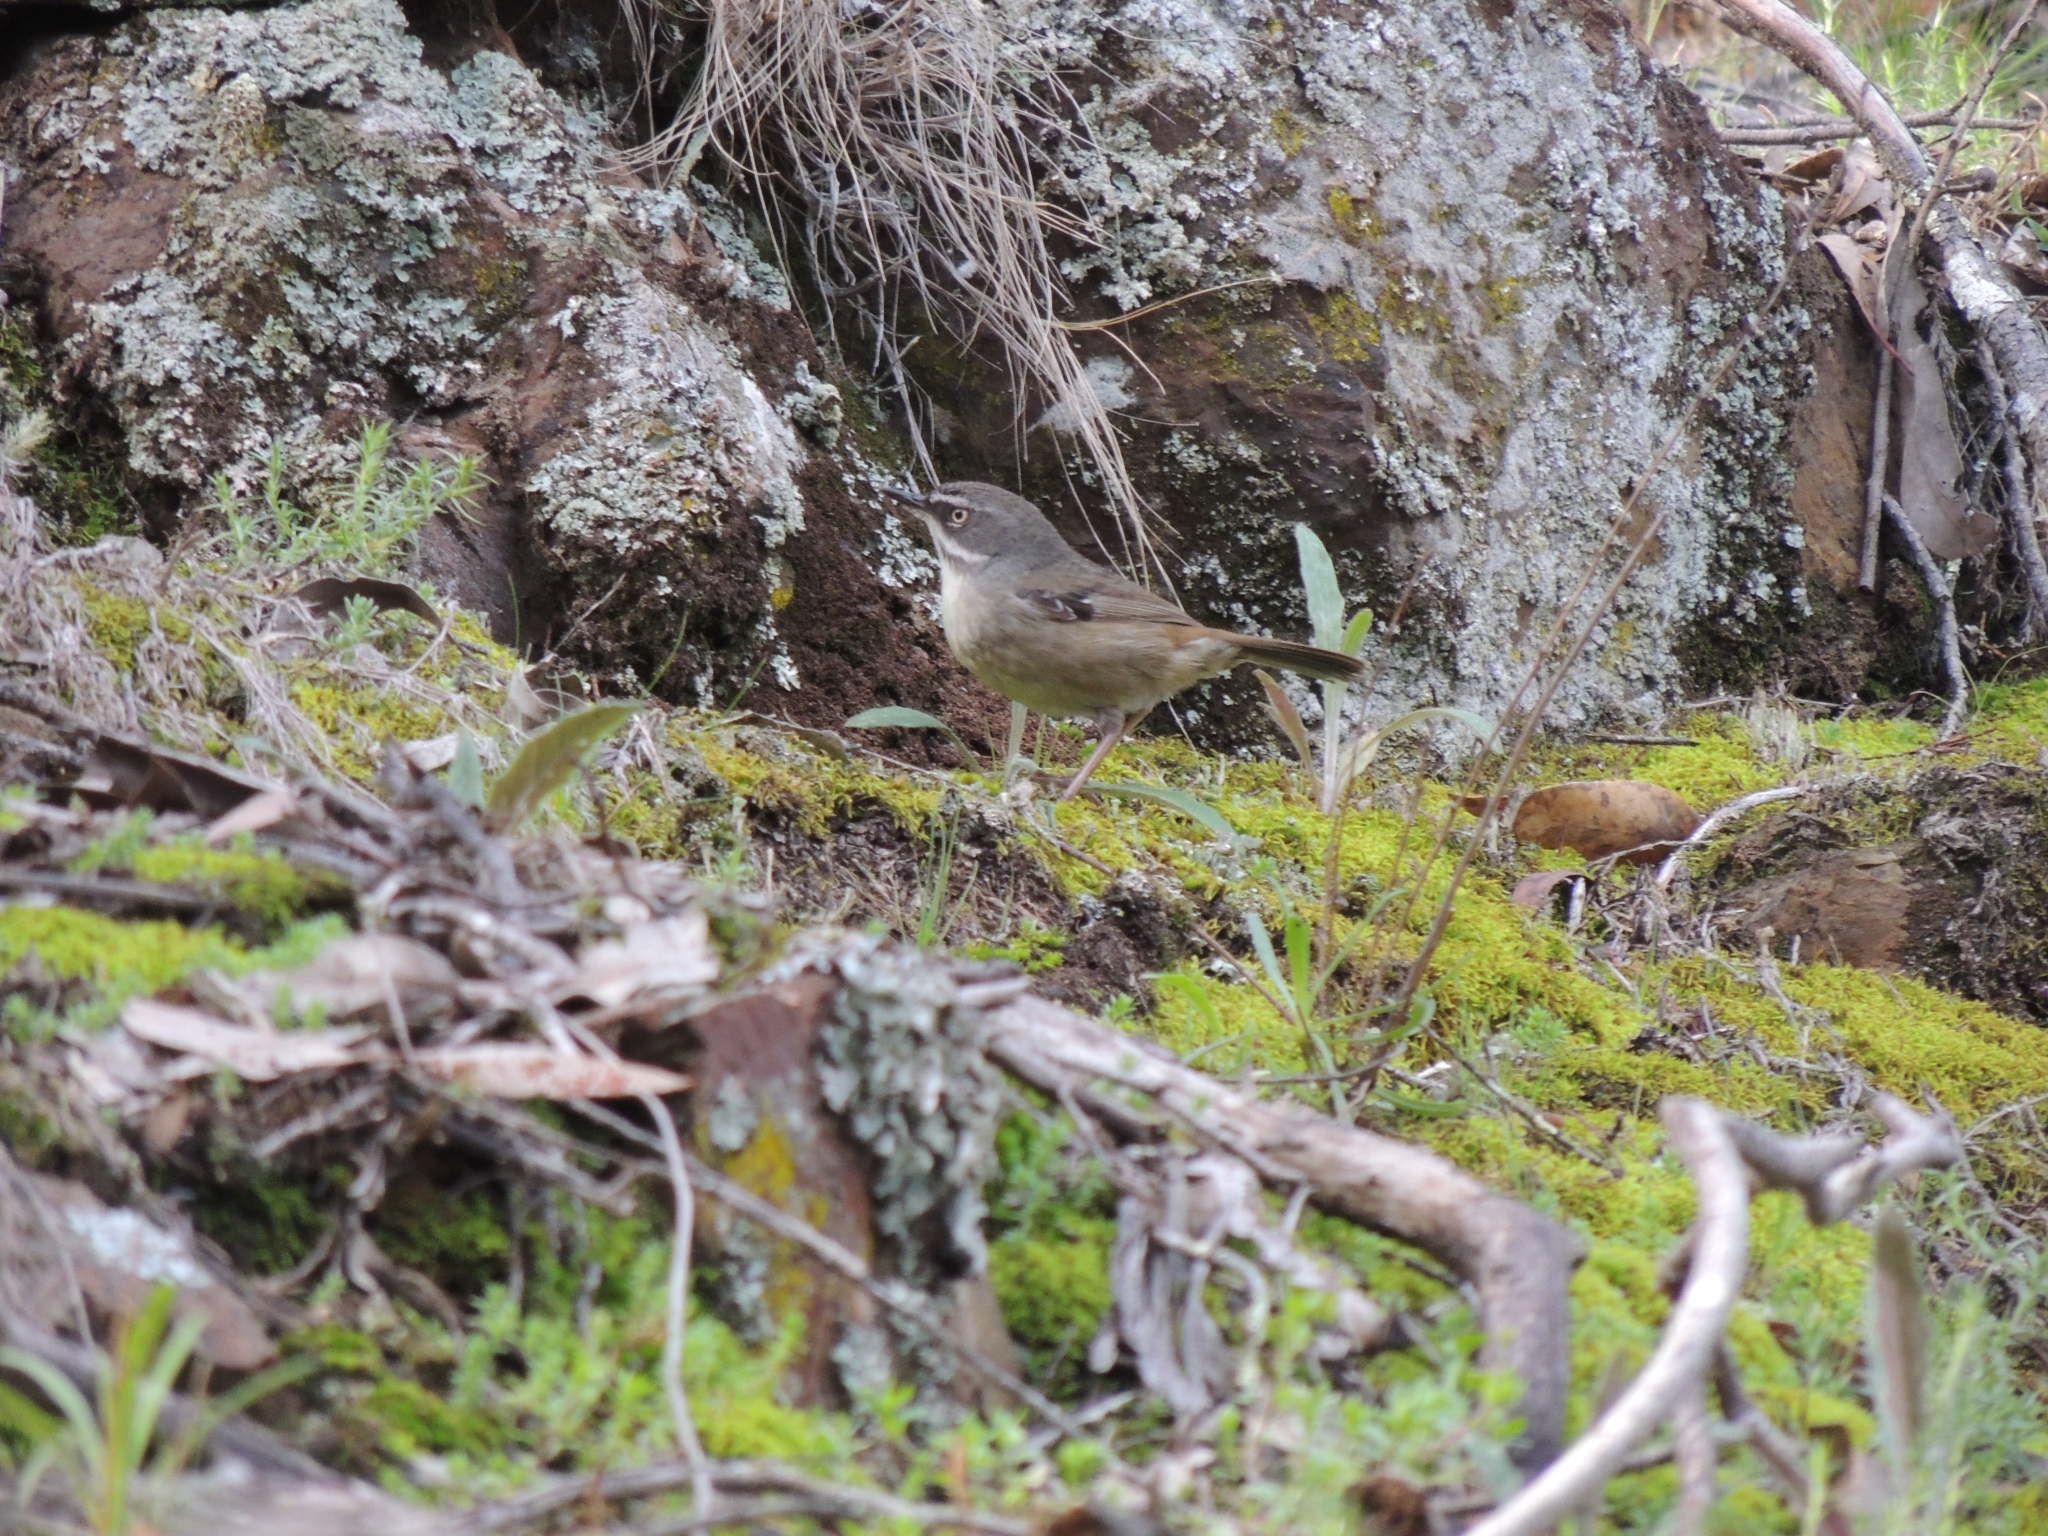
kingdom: Animalia
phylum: Chordata
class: Aves
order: Passeriformes
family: Acanthizidae
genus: Sericornis
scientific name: Sericornis frontalis
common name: White-browed scrubwren
